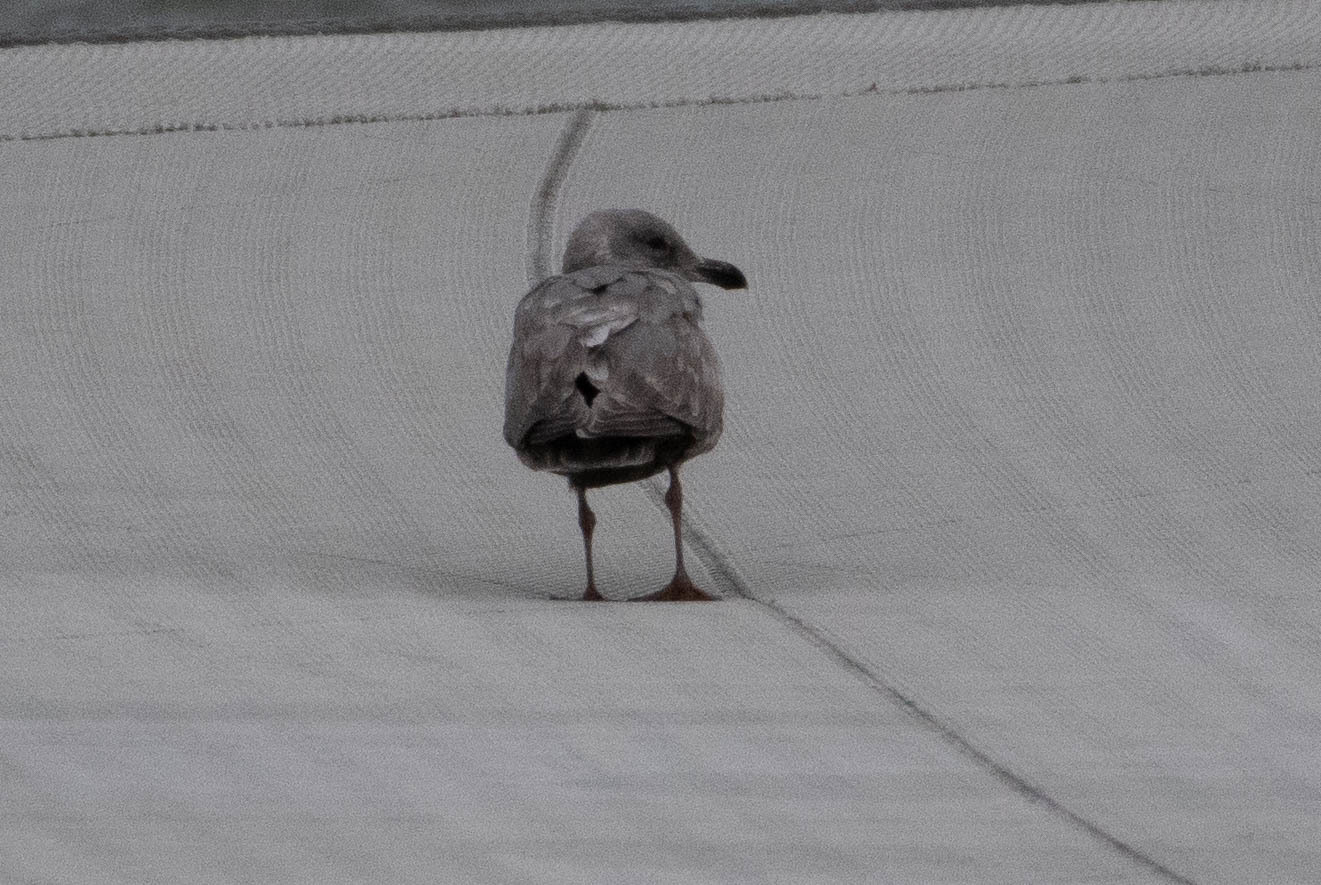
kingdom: Animalia
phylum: Chordata
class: Aves
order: Charadriiformes
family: Laridae
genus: Larus
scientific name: Larus
